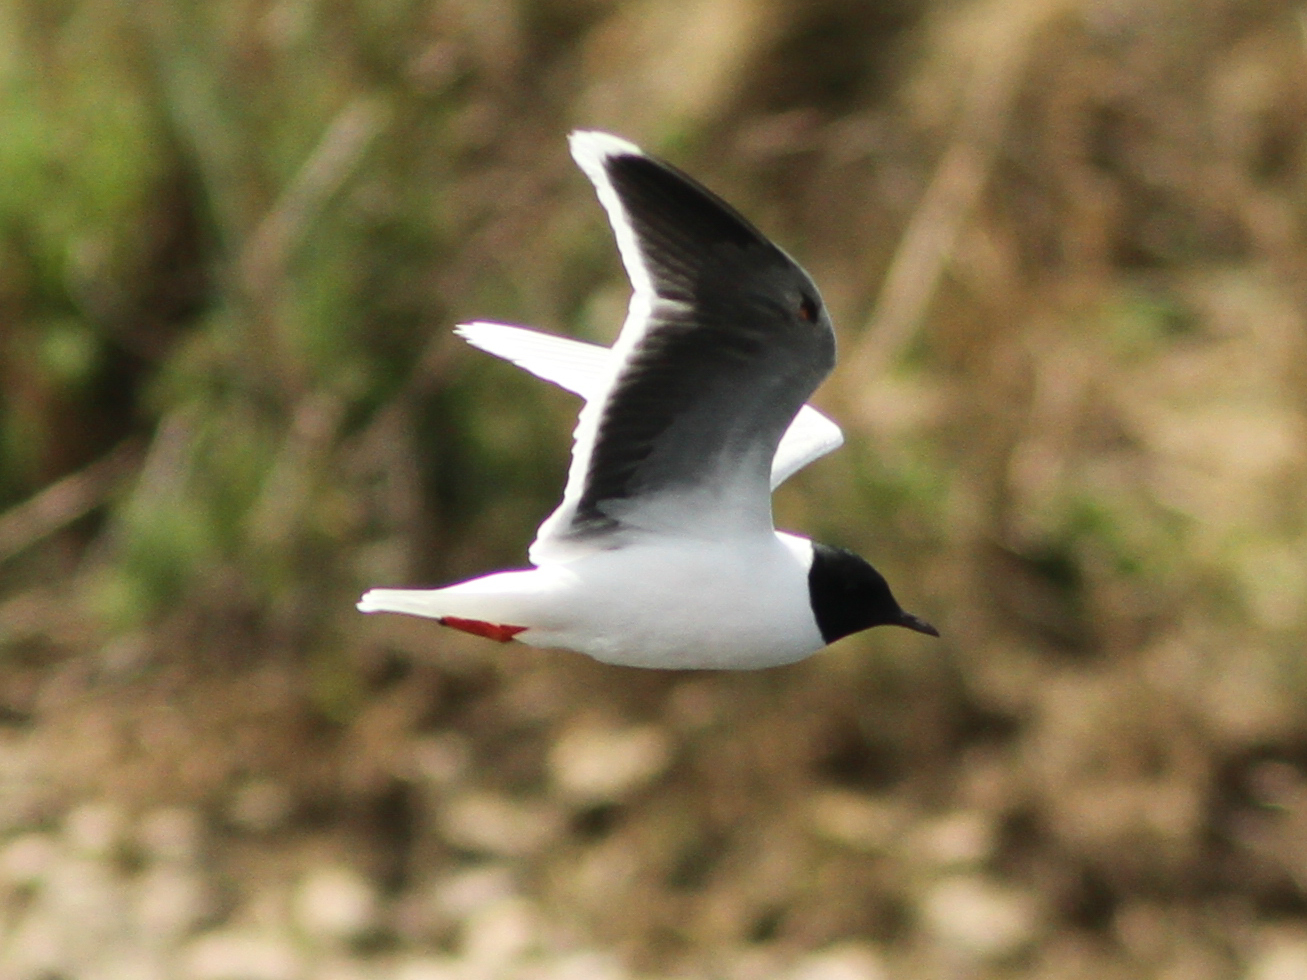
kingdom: Animalia
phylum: Chordata
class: Aves
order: Charadriiformes
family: Laridae
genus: Hydrocoloeus
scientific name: Hydrocoloeus minutus
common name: Little gull
